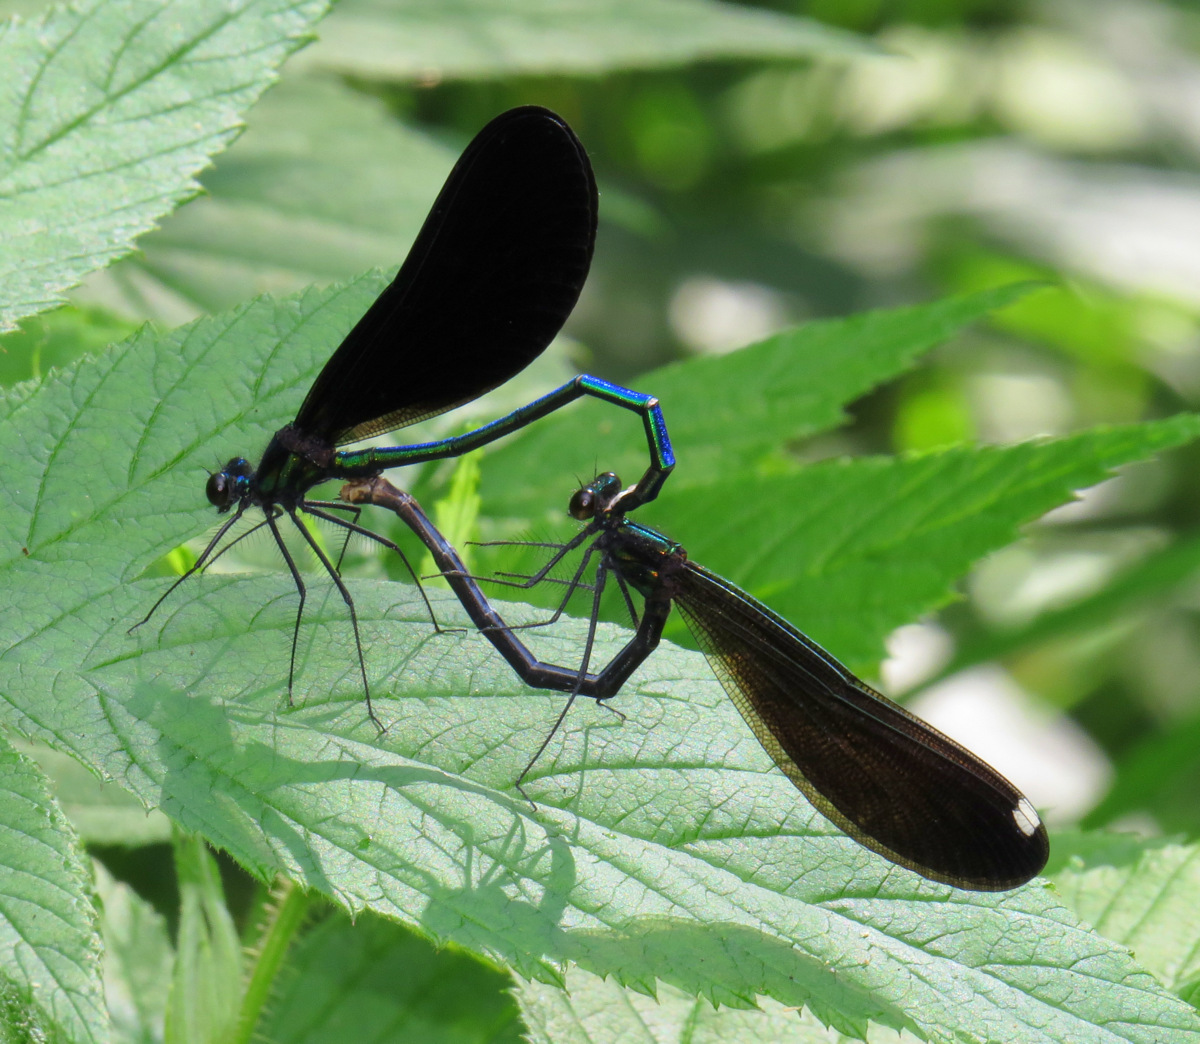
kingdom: Animalia
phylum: Arthropoda
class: Insecta
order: Odonata
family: Calopterygidae
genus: Calopteryx
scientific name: Calopteryx maculata
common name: Ebony jewelwing
